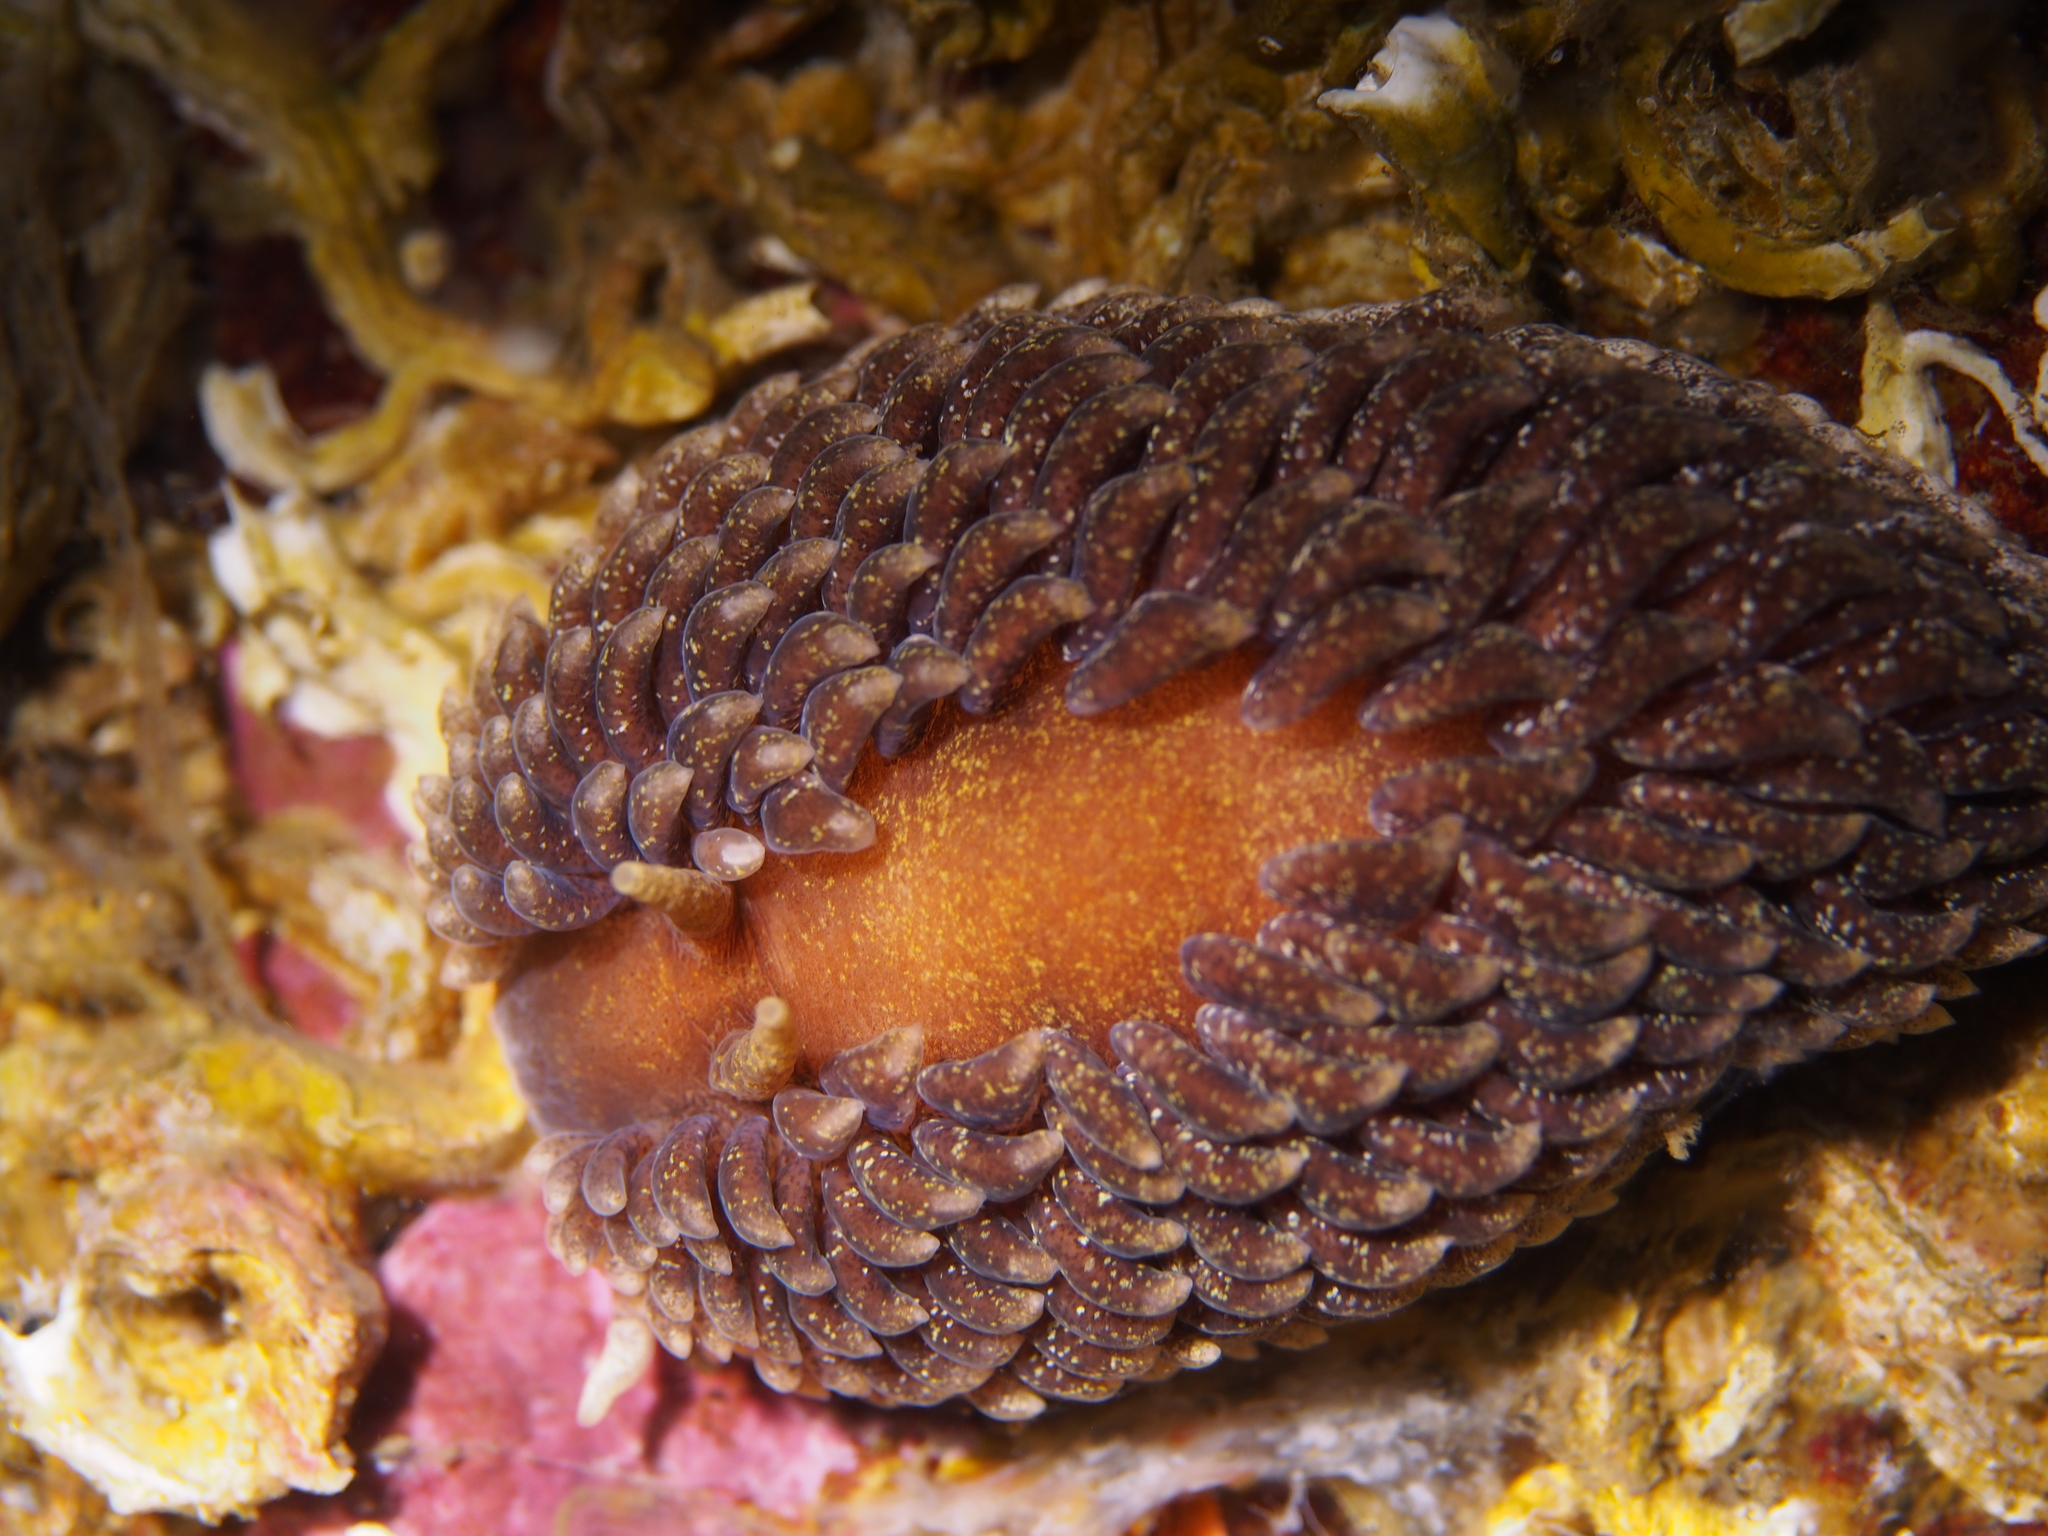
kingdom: Animalia
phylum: Mollusca
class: Gastropoda
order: Nudibranchia
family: Aeolidiidae
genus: Aeolidia
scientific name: Aeolidia papillosa
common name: Common grey sea slug
